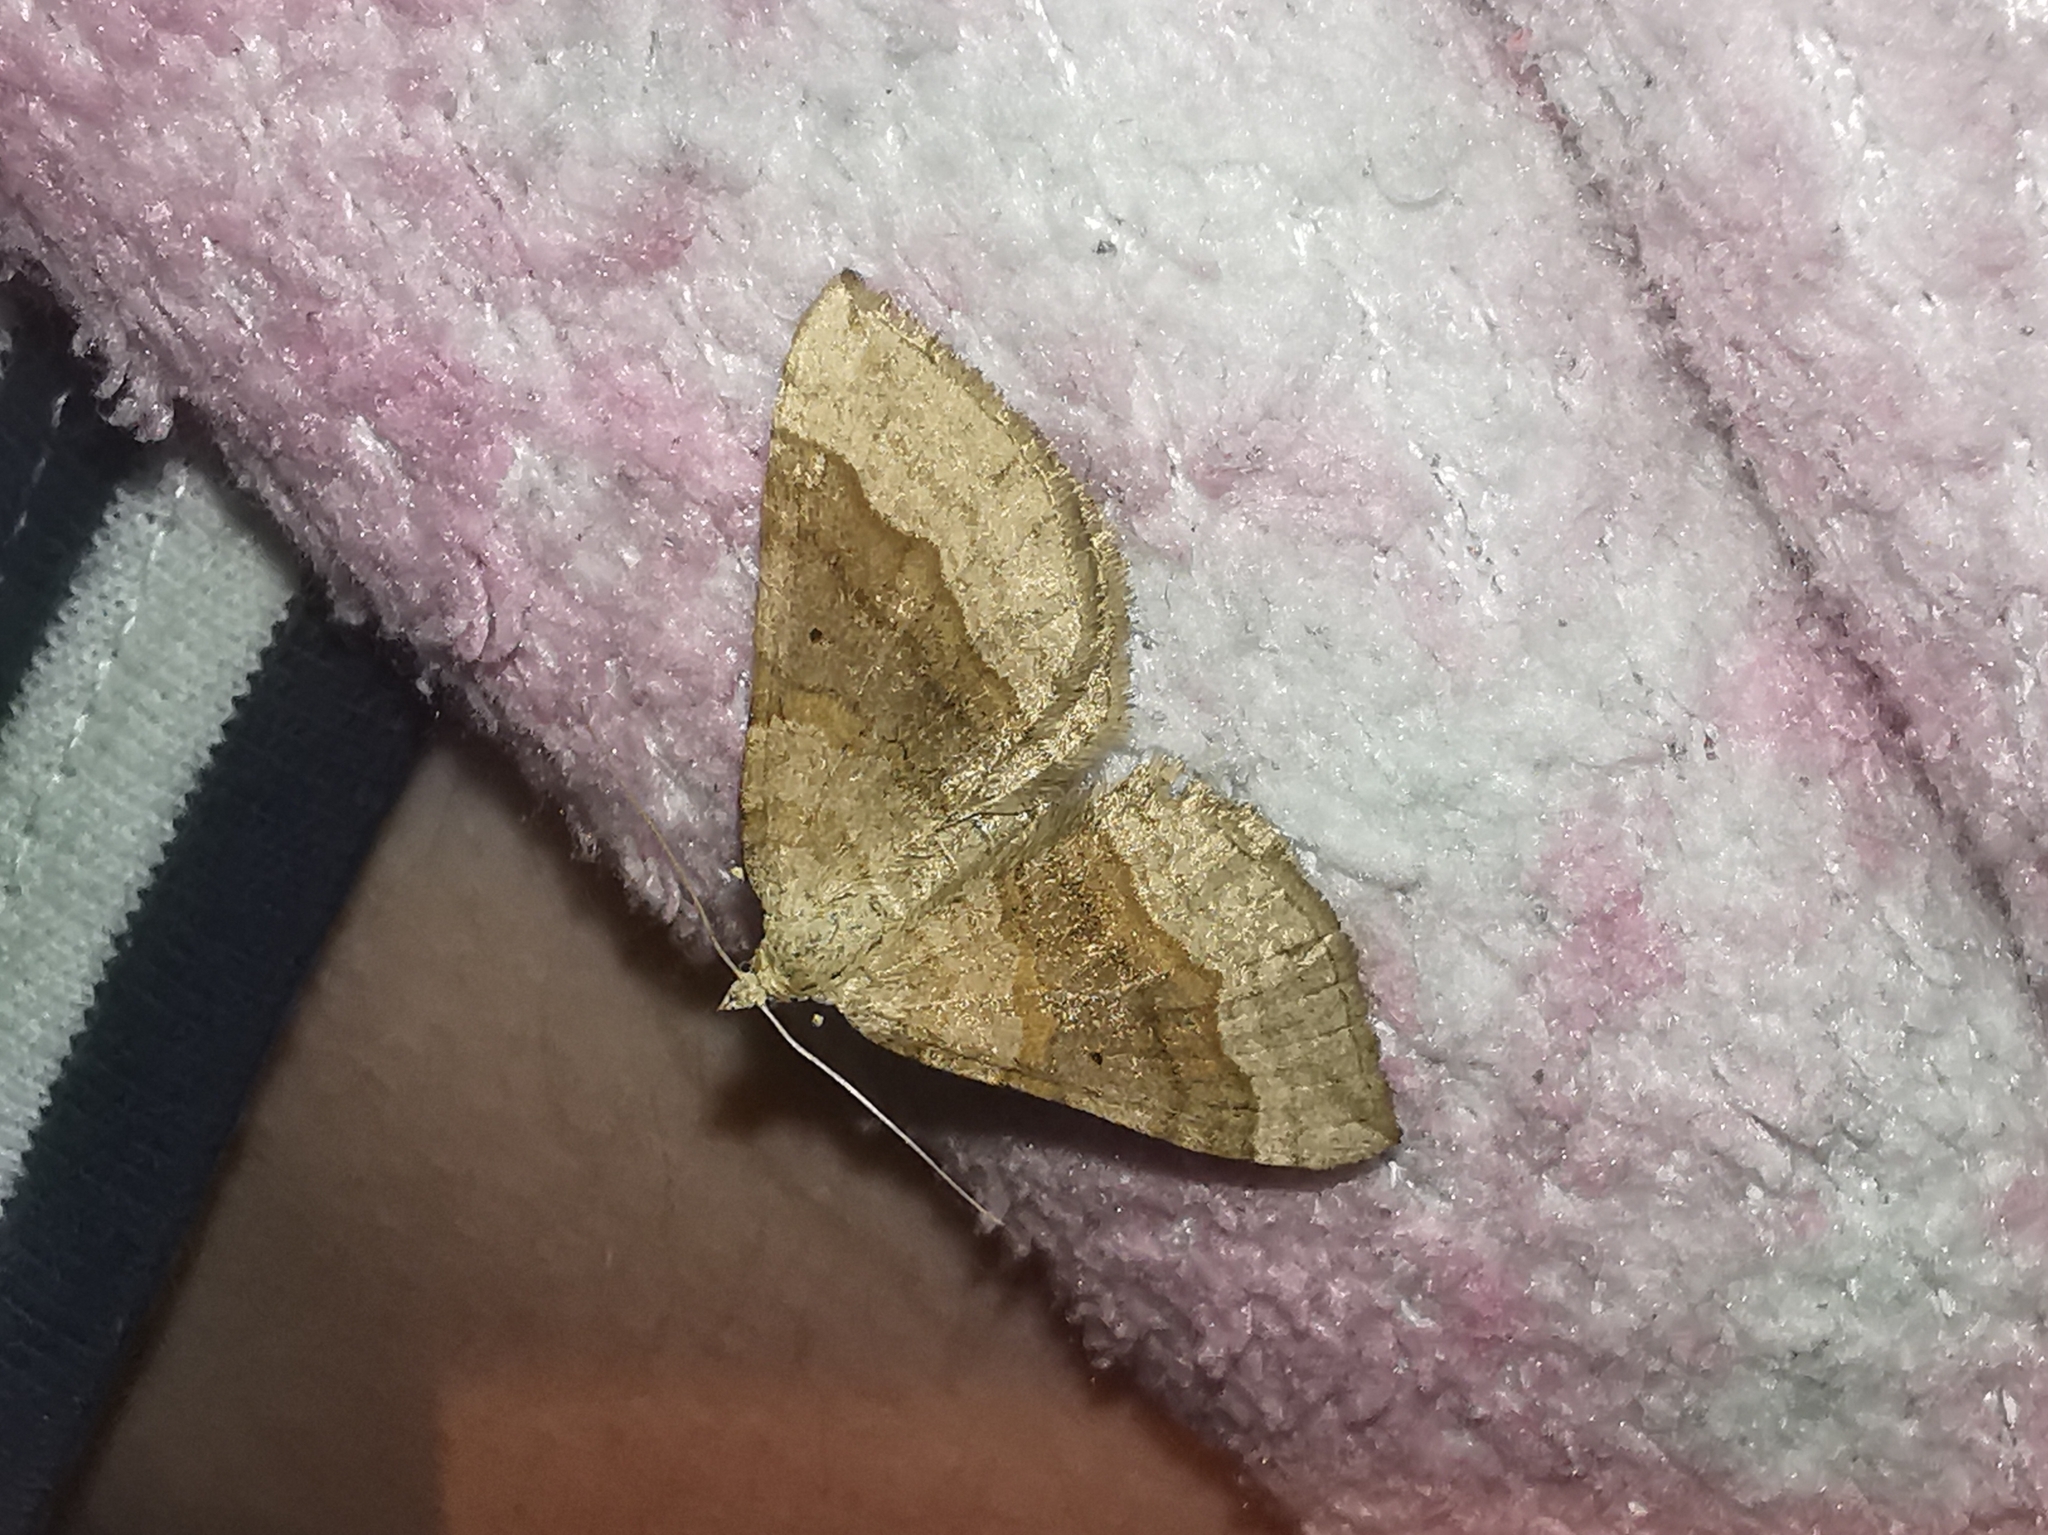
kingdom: Animalia
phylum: Arthropoda
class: Insecta
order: Lepidoptera
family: Geometridae
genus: Scotopteryx
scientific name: Scotopteryx chenopodiata
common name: Shaded broad-bar
